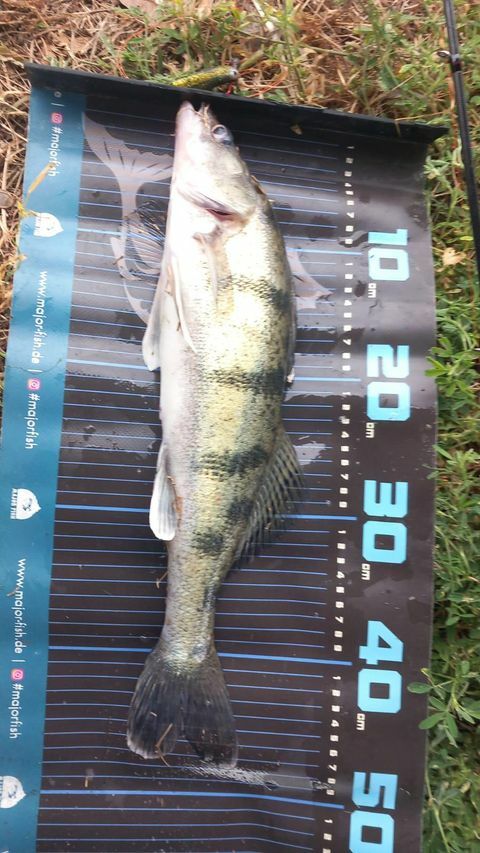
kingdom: Animalia
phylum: Chordata
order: Perciformes
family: Percidae
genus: Sander
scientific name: Sander volgensis
